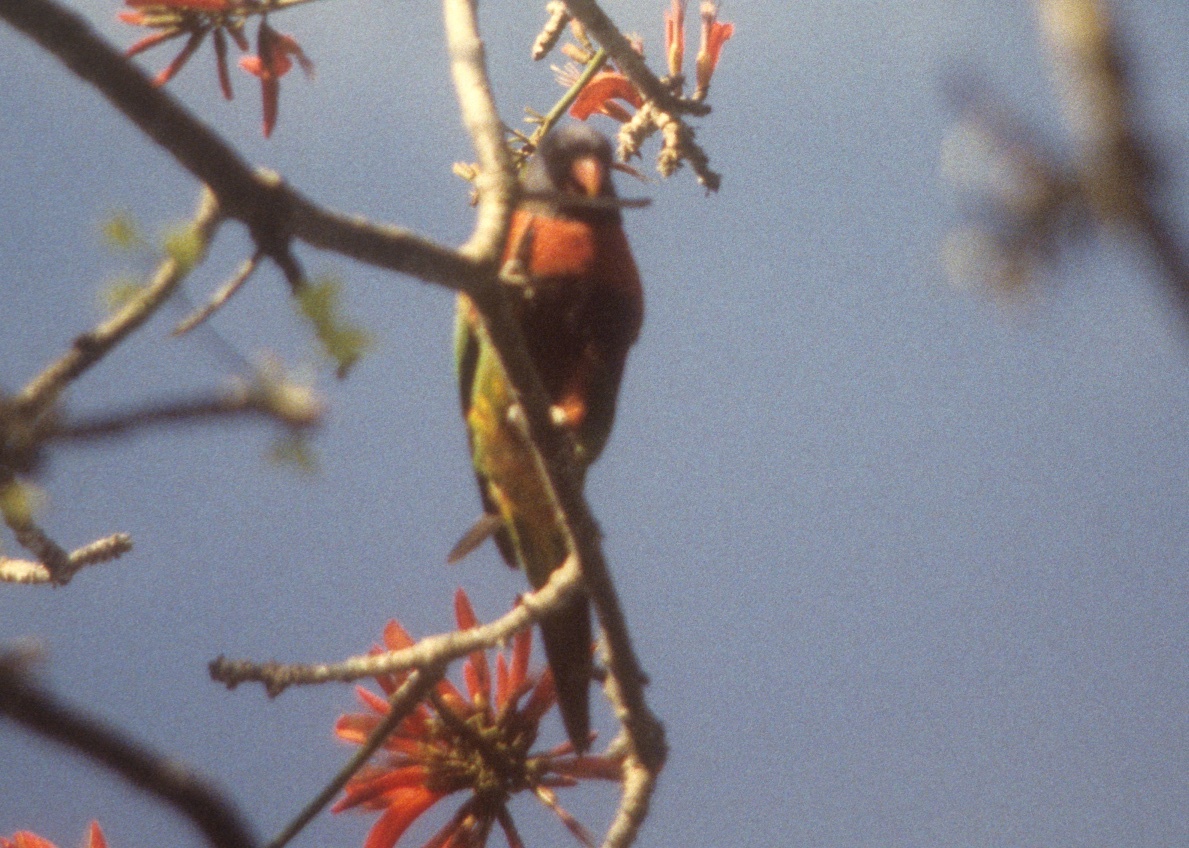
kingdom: Animalia
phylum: Chordata
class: Aves
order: Psittaciformes
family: Psittacidae
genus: Trichoglossus
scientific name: Trichoglossus haematodus
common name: Coconut lorikeet
